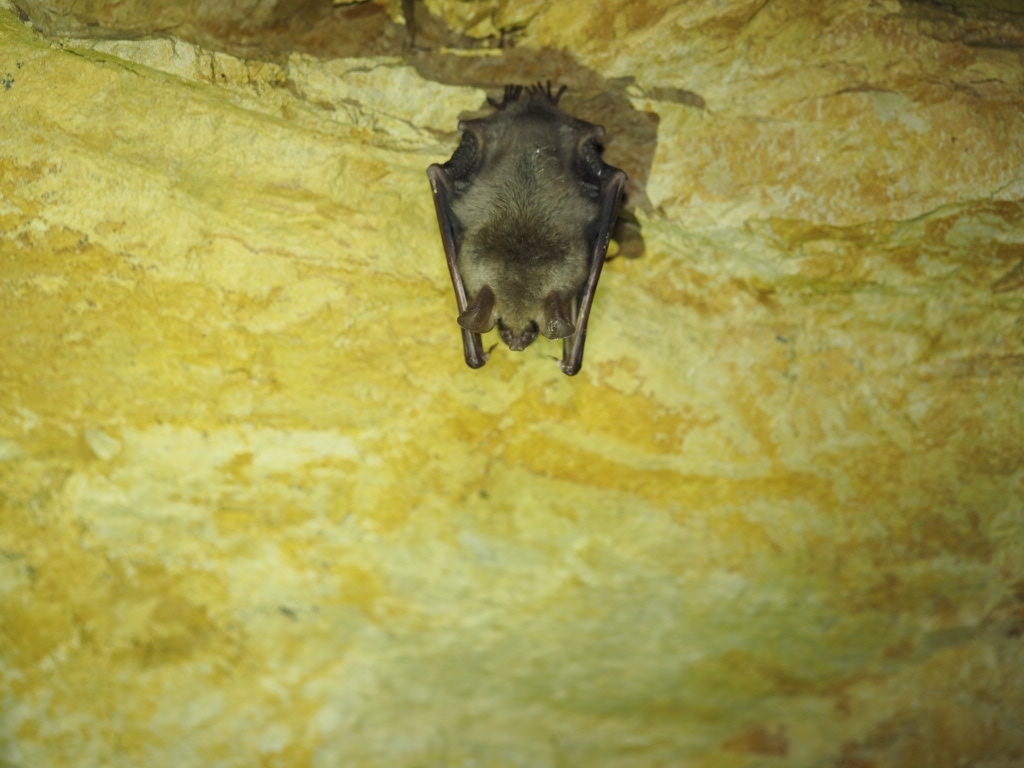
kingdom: Animalia
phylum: Chordata
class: Mammalia
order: Chiroptera
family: Vespertilionidae
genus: Myotis
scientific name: Myotis myotis
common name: Greater mouse-eared bat
